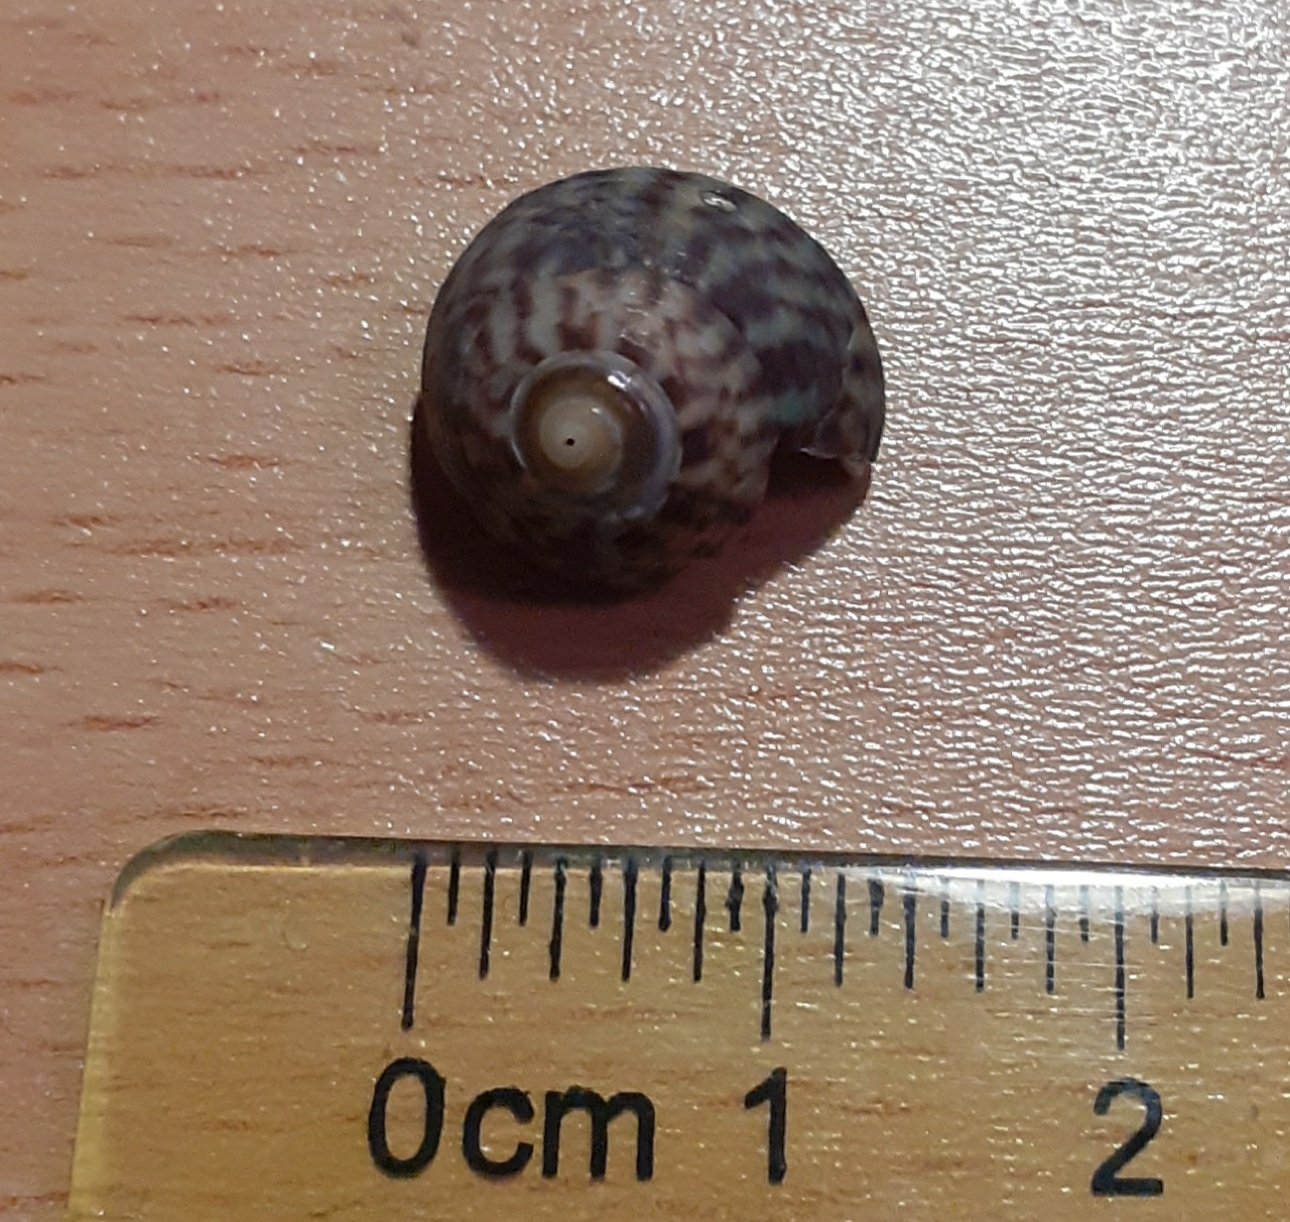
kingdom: Animalia
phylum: Mollusca
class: Gastropoda
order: Trochida
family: Trochidae
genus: Steromphala
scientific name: Steromphala umbilicalis
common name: Flat top shell
